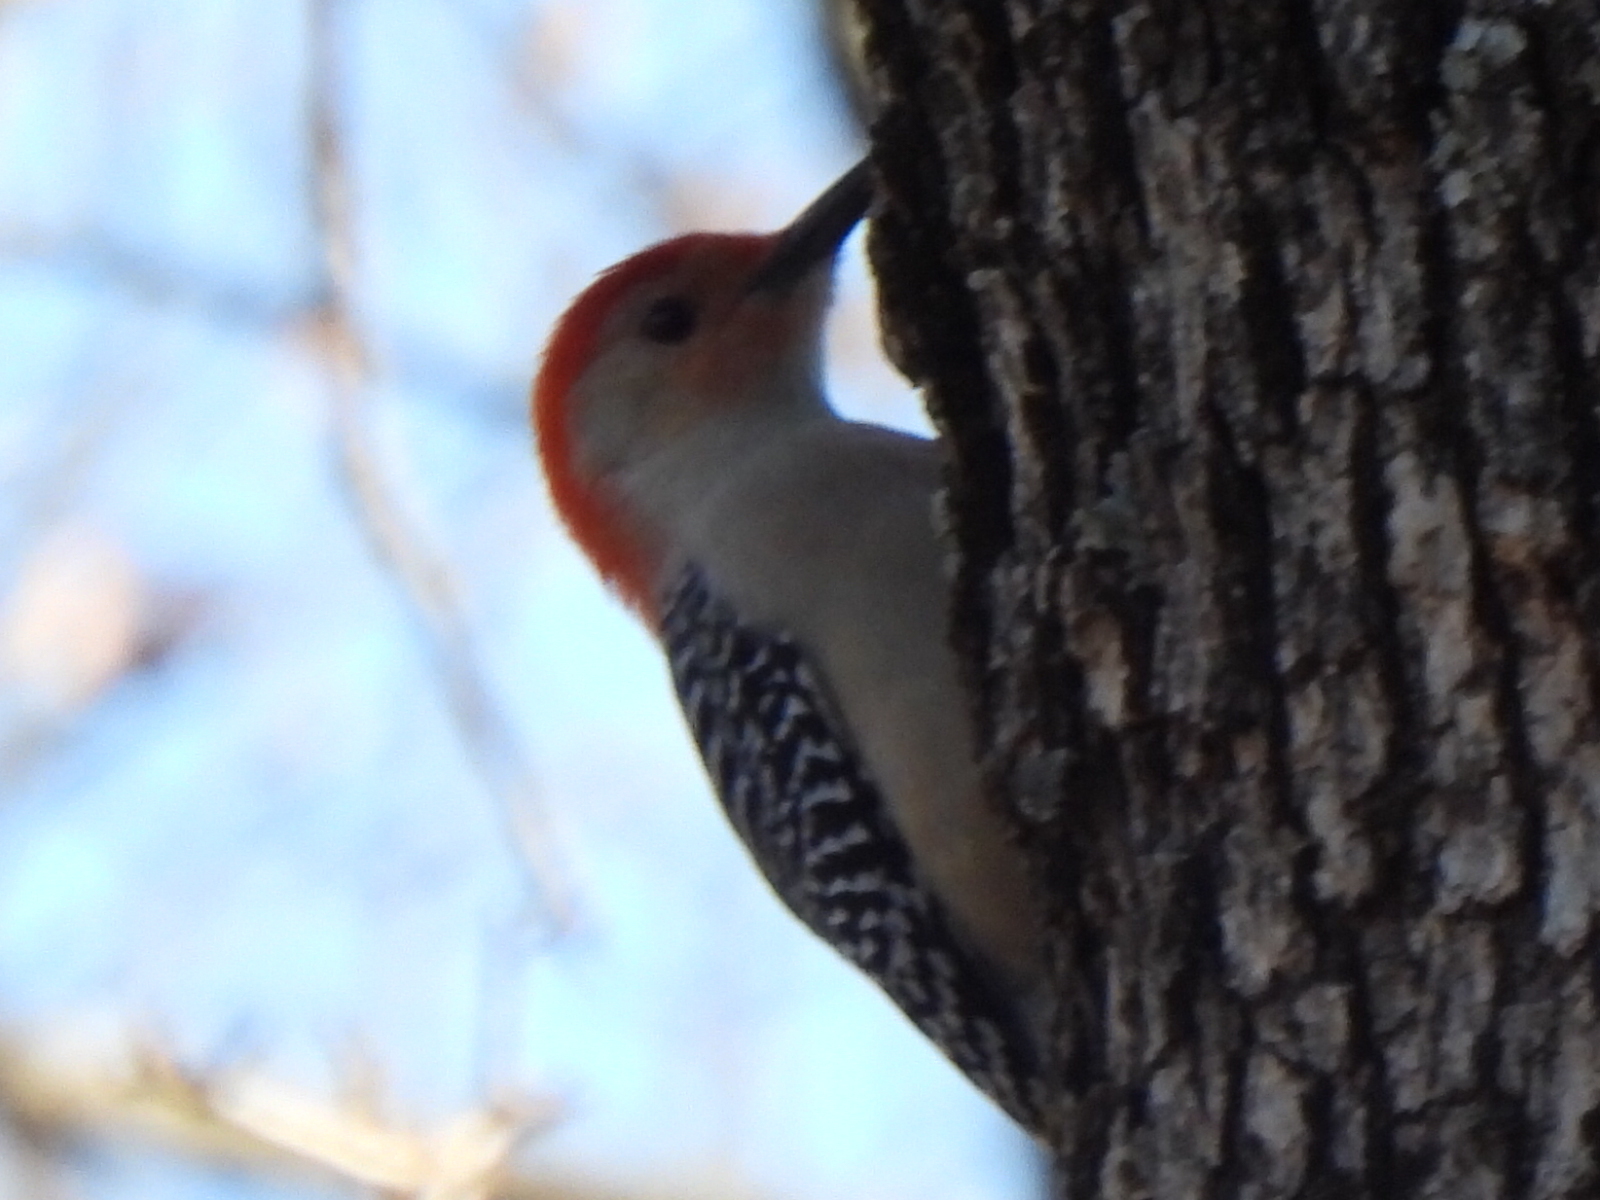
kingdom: Animalia
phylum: Chordata
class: Aves
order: Piciformes
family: Picidae
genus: Melanerpes
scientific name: Melanerpes carolinus
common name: Red-bellied woodpecker
